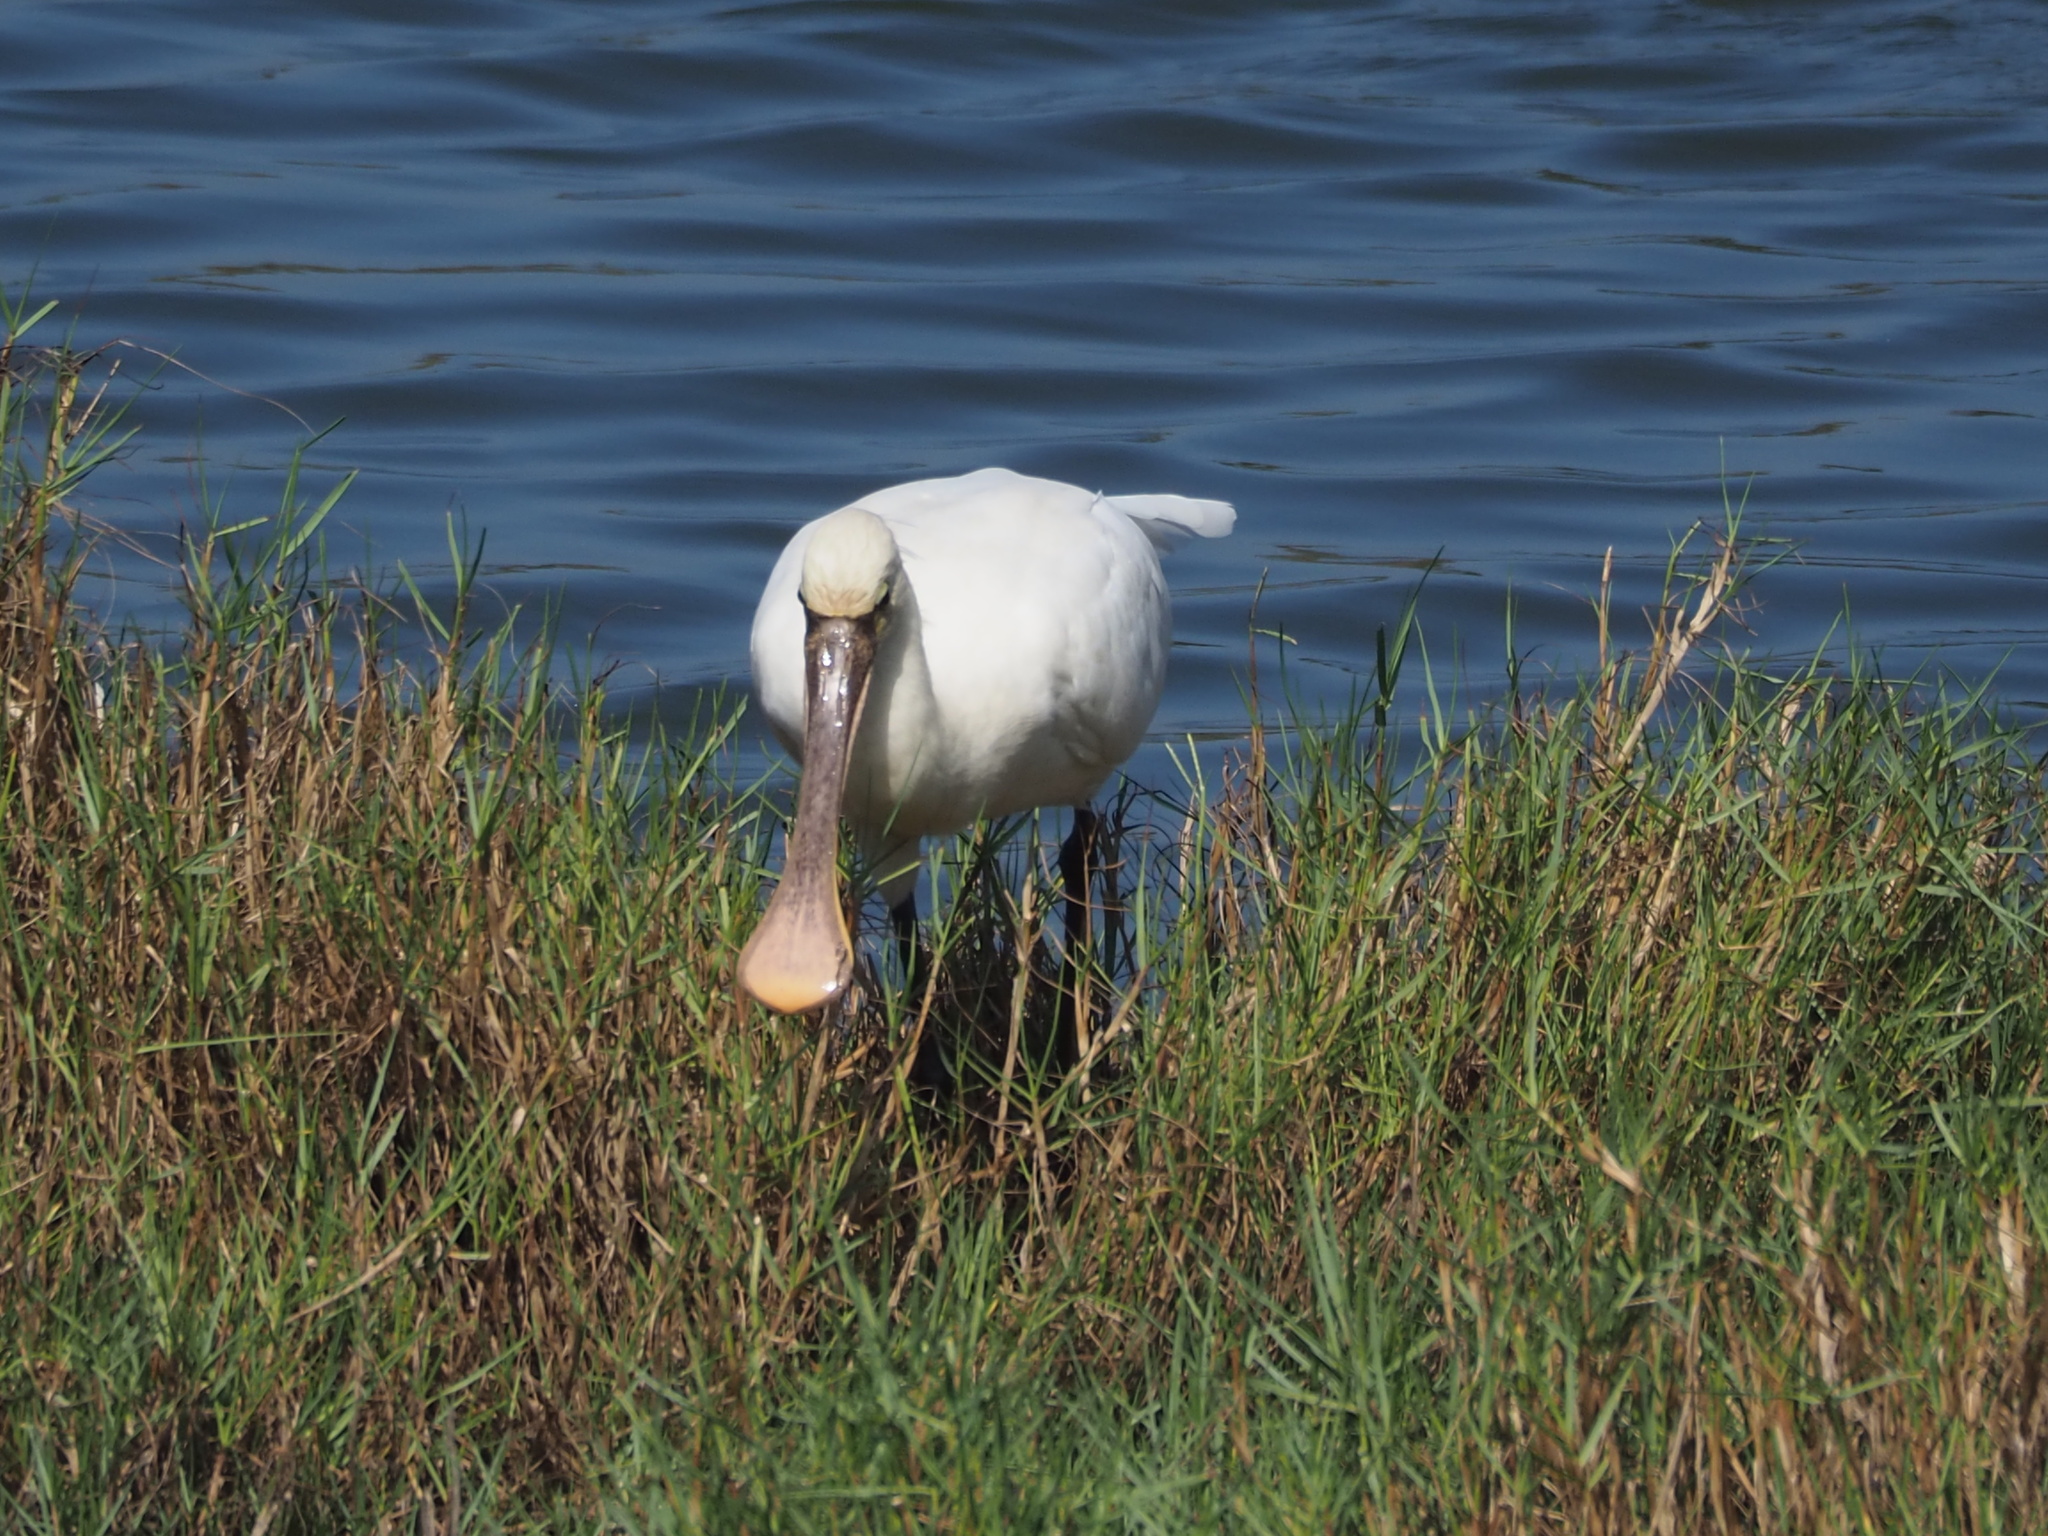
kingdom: Animalia
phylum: Chordata
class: Aves
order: Pelecaniformes
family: Threskiornithidae
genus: Platalea
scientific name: Platalea leucorodia
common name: Eurasian spoonbill
